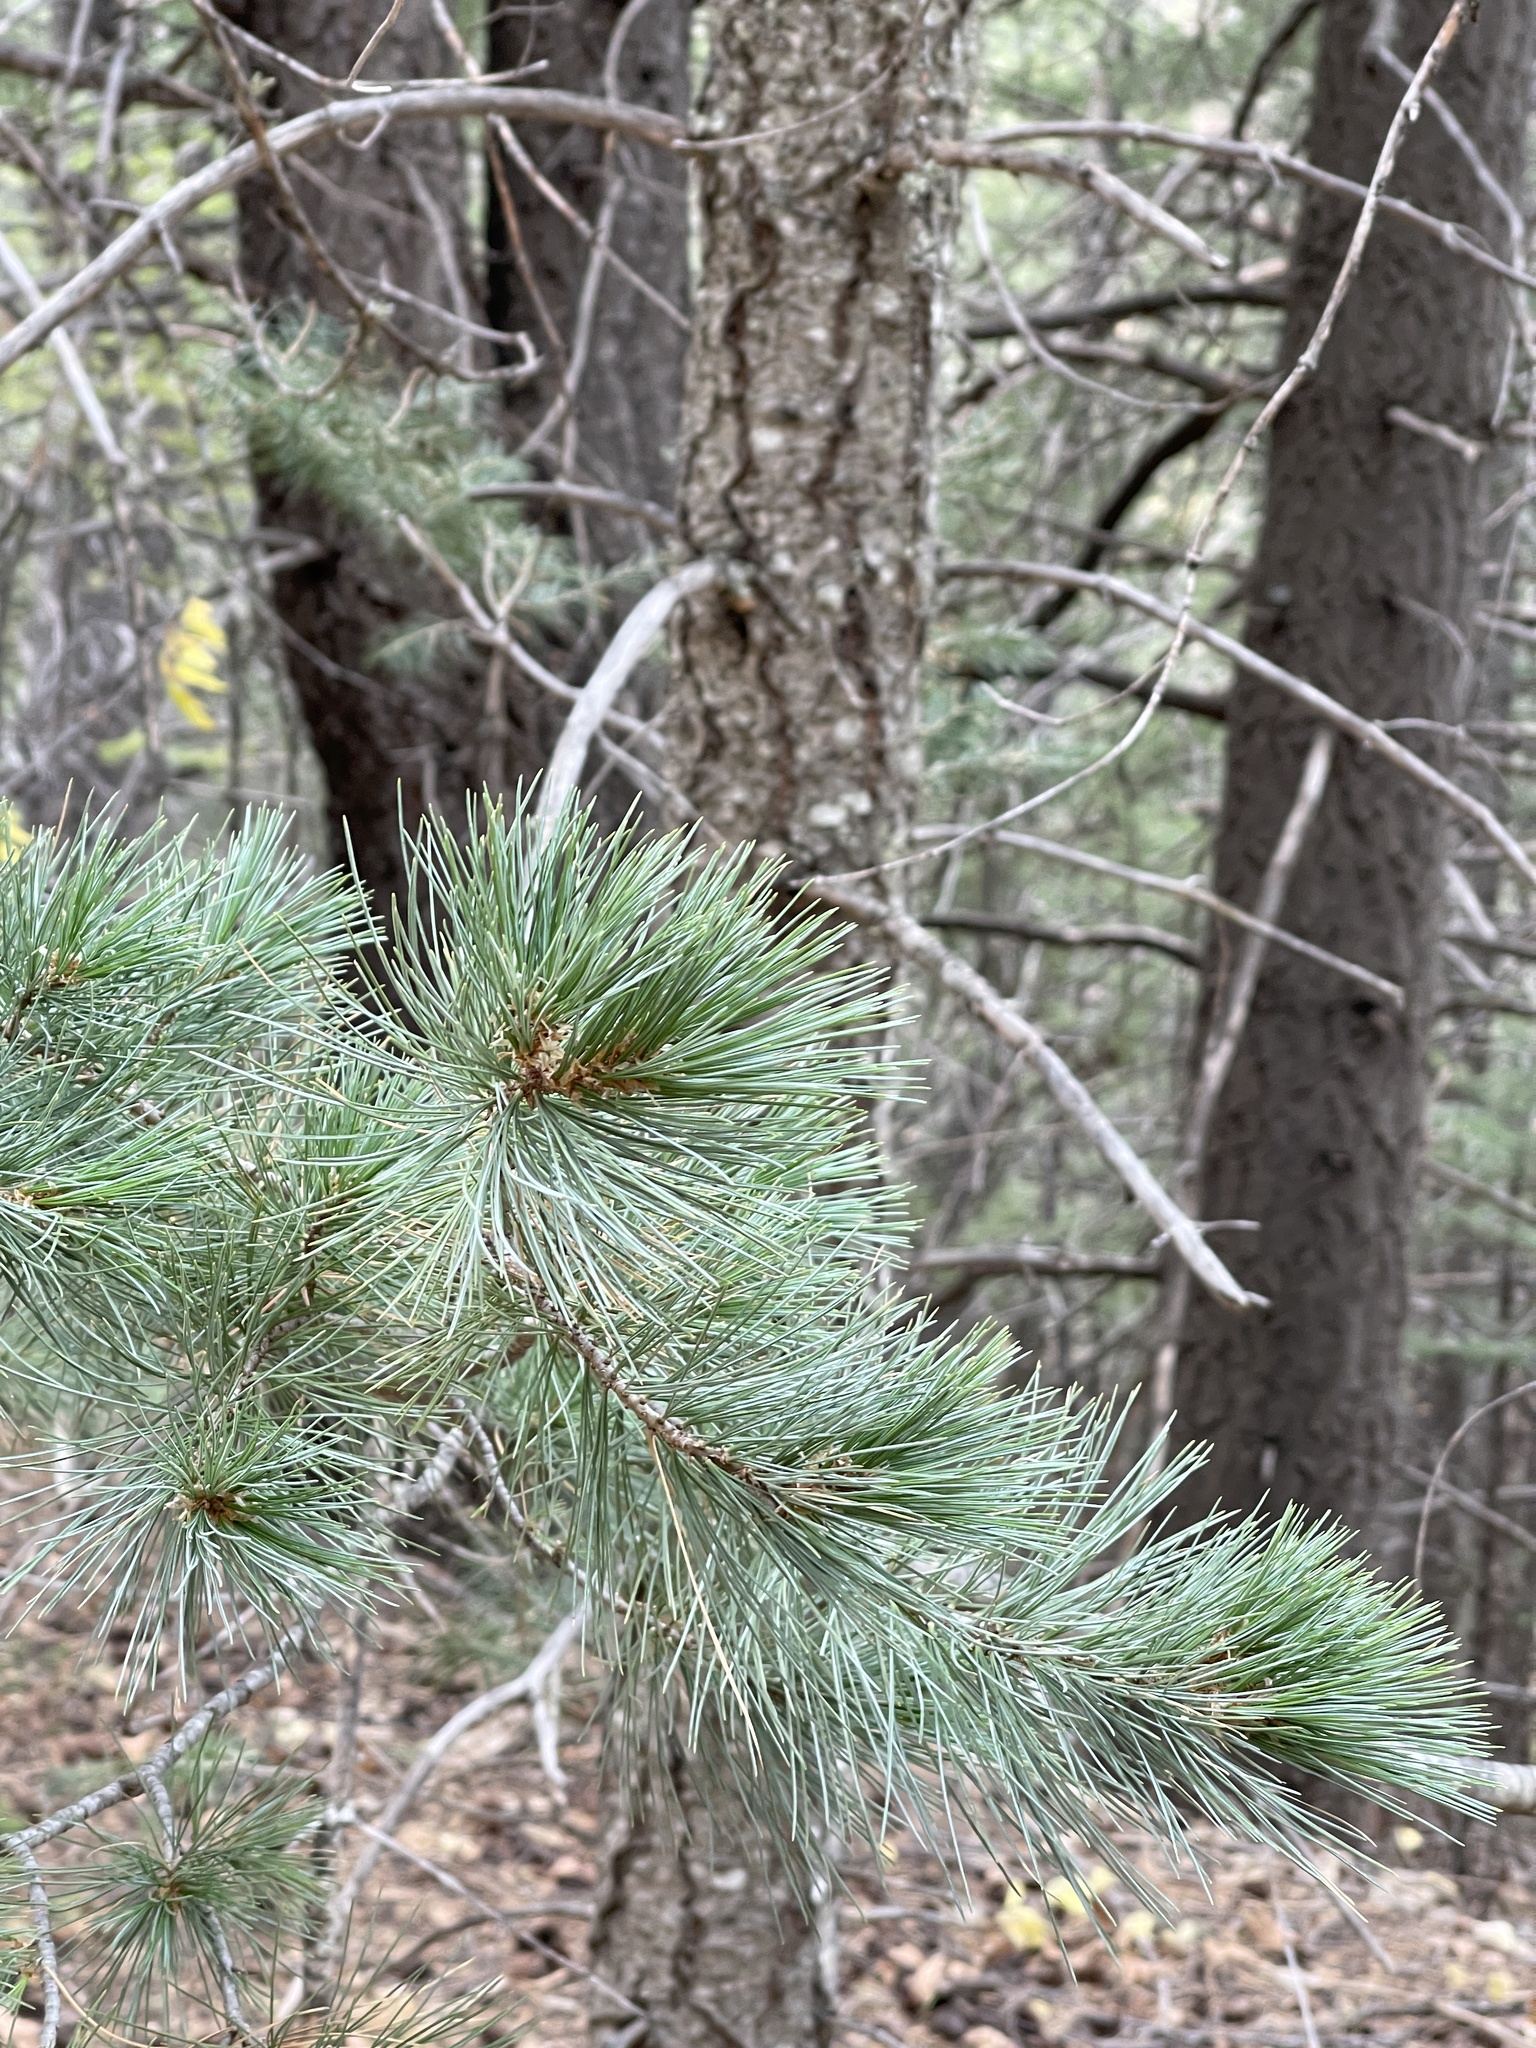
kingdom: Plantae
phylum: Tracheophyta
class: Pinopsida
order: Pinales
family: Pinaceae
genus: Pinus
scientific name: Pinus strobiformis
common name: Southwestern white pine
